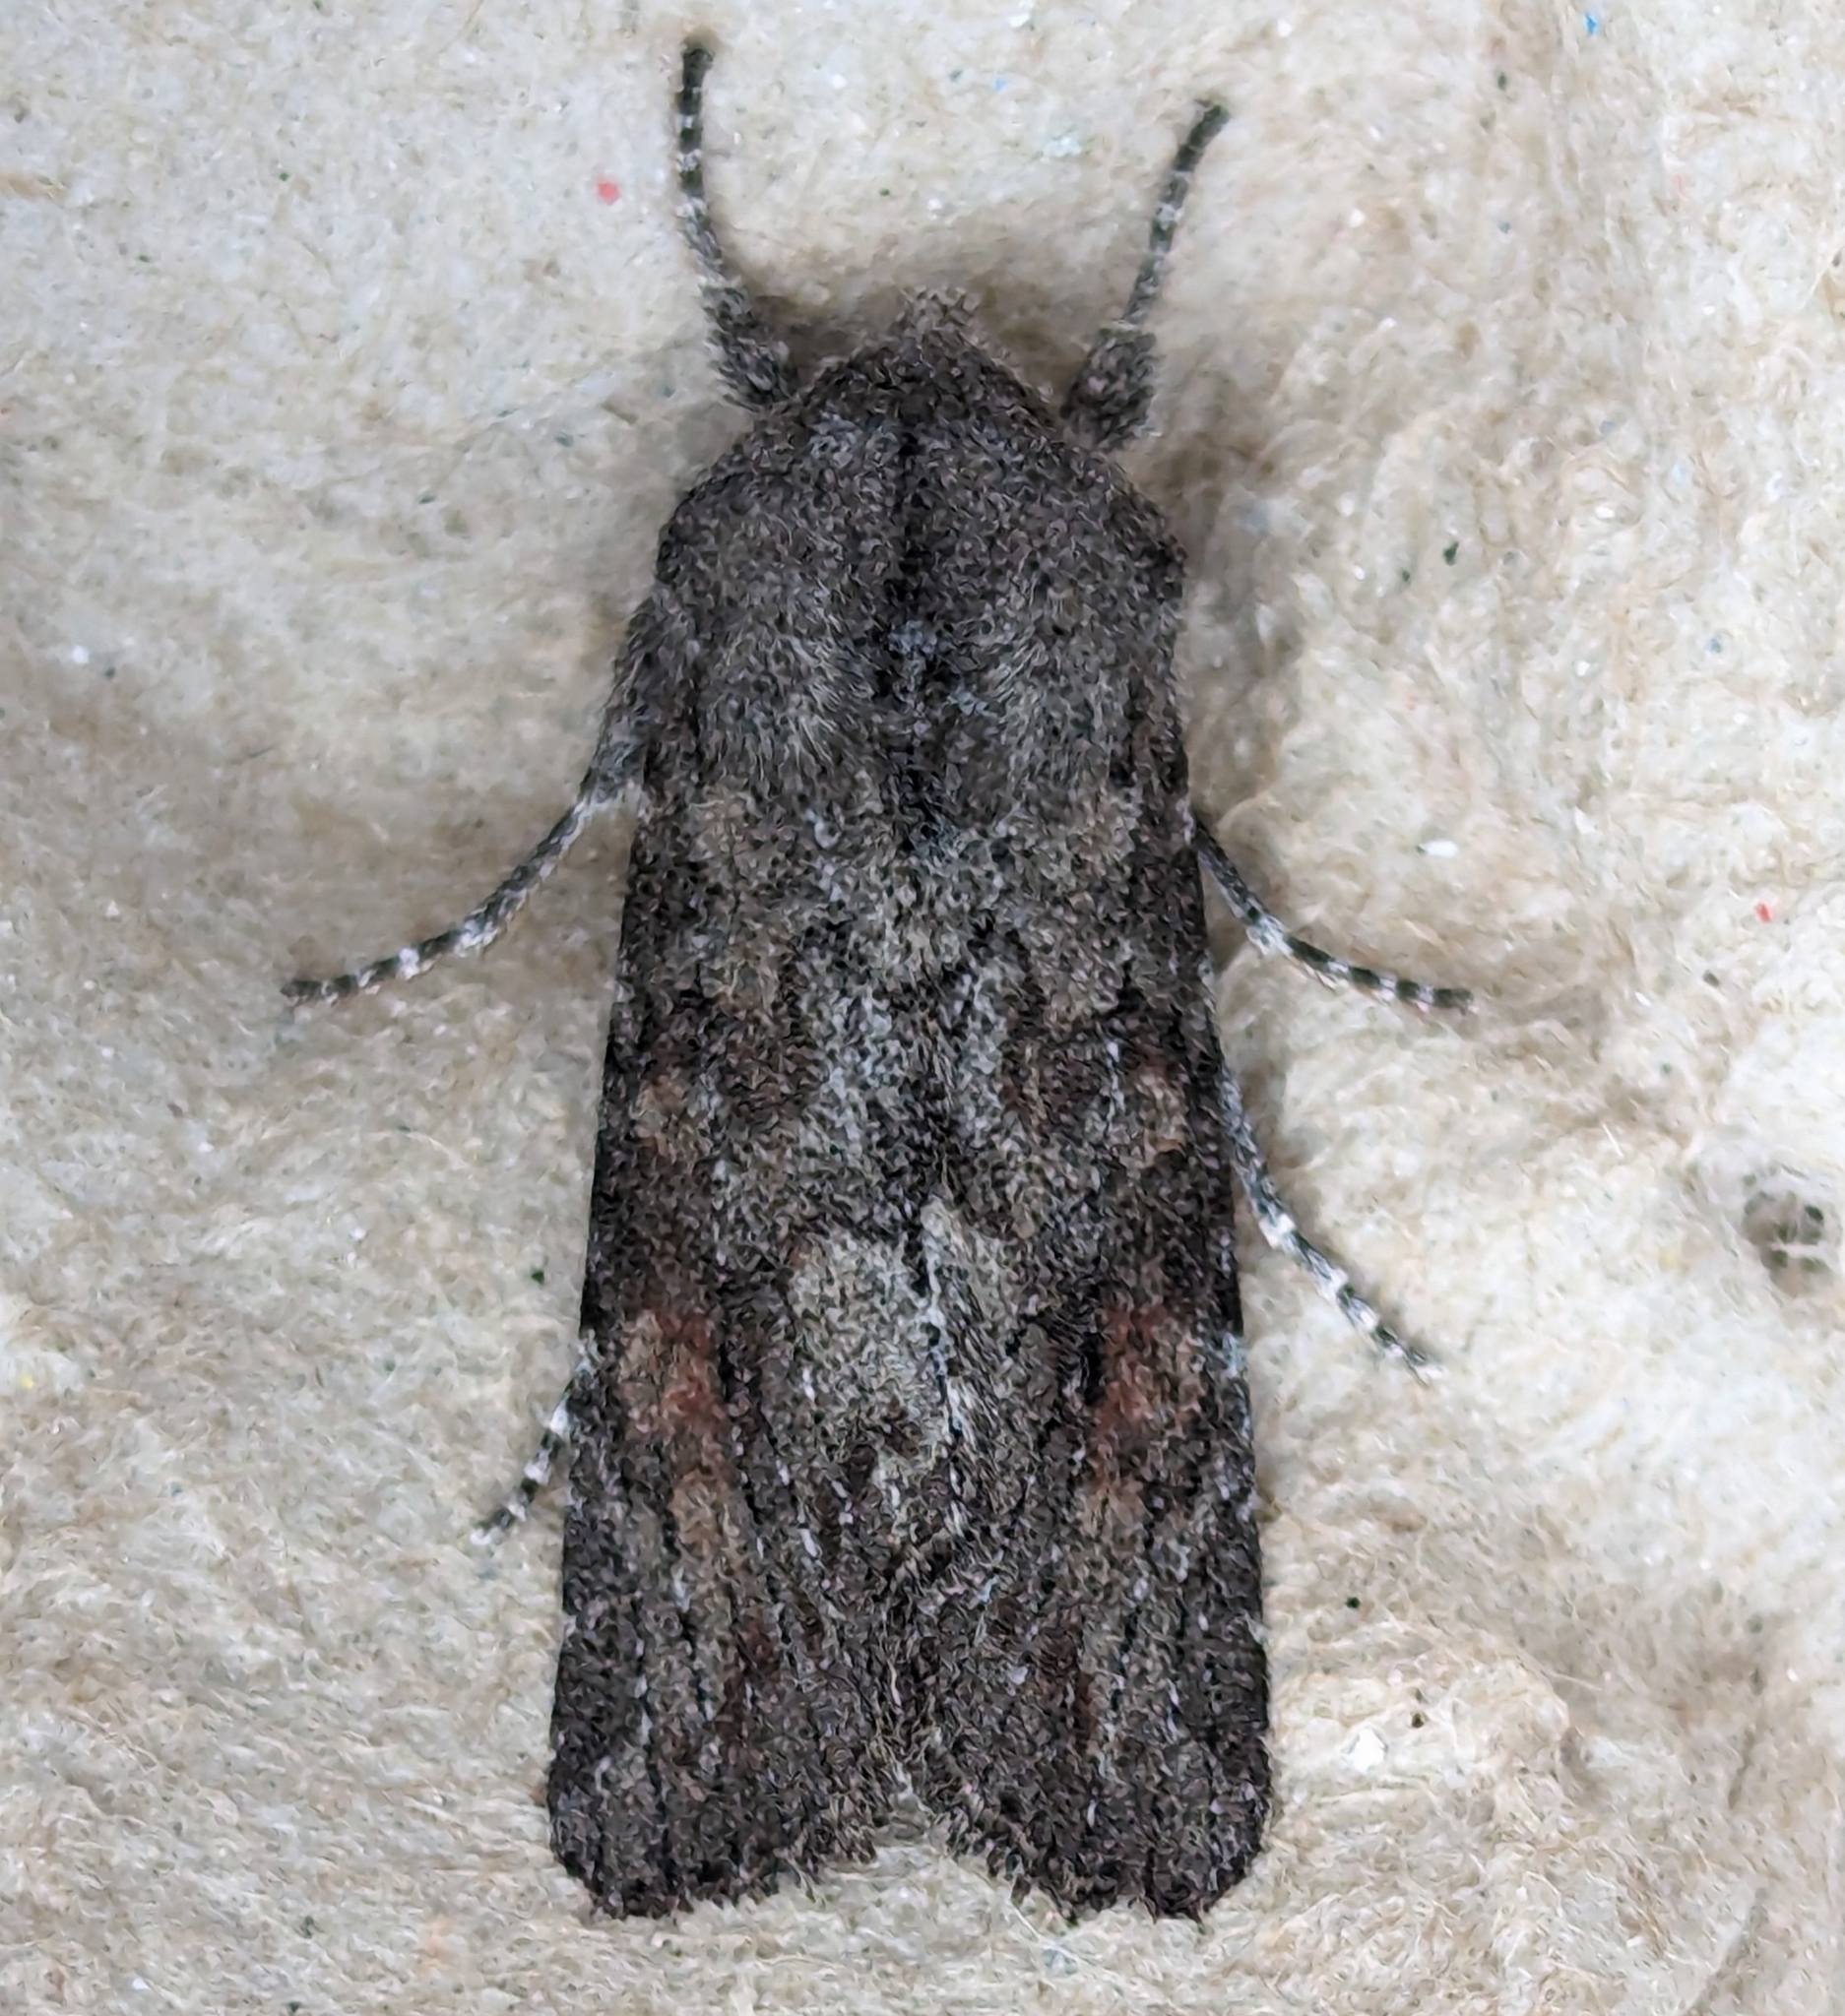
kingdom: Animalia
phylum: Arthropoda
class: Insecta
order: Lepidoptera
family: Noctuidae
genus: Egira
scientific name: Egira curialis
